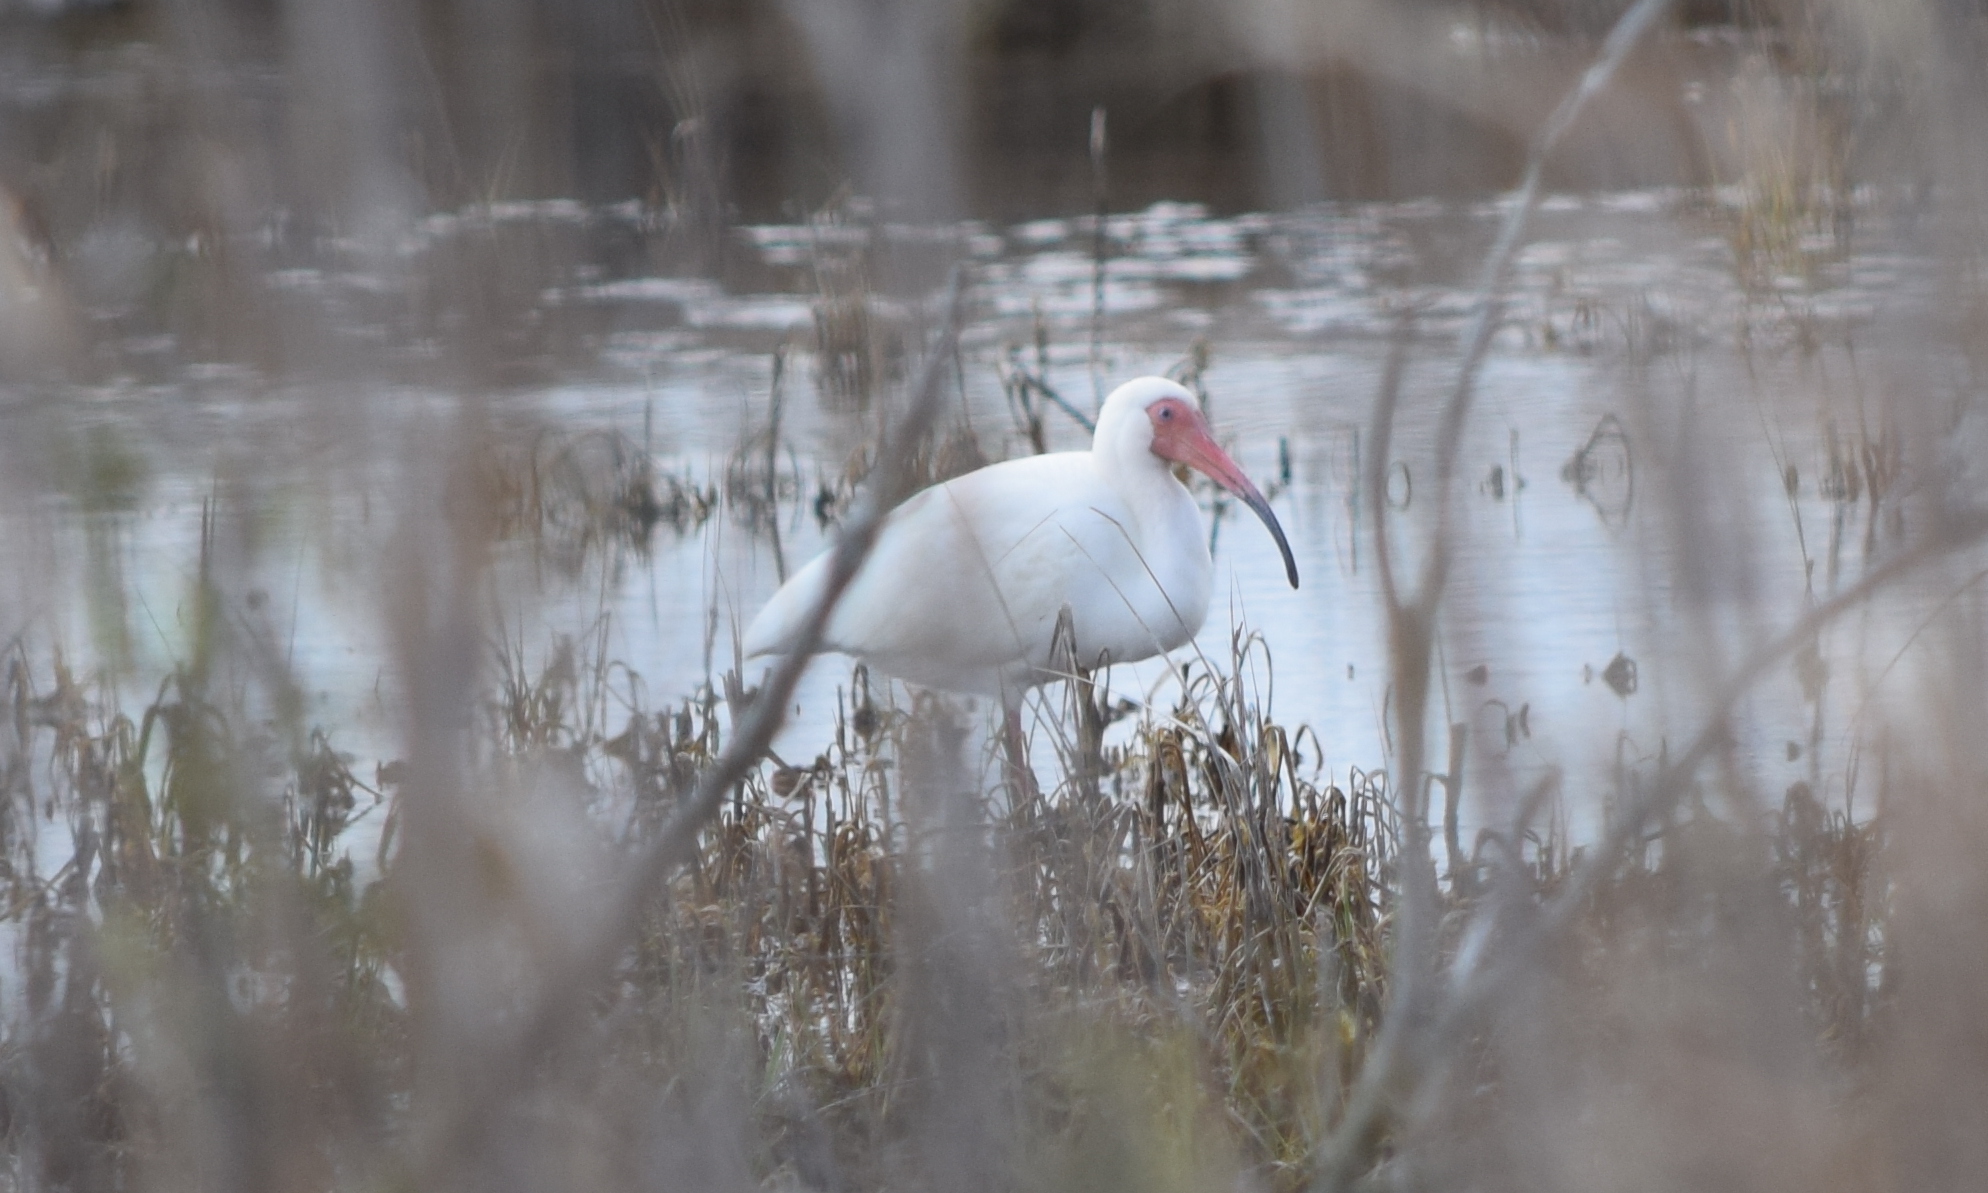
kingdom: Animalia
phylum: Chordata
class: Aves
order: Pelecaniformes
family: Threskiornithidae
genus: Eudocimus
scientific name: Eudocimus albus
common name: White ibis
